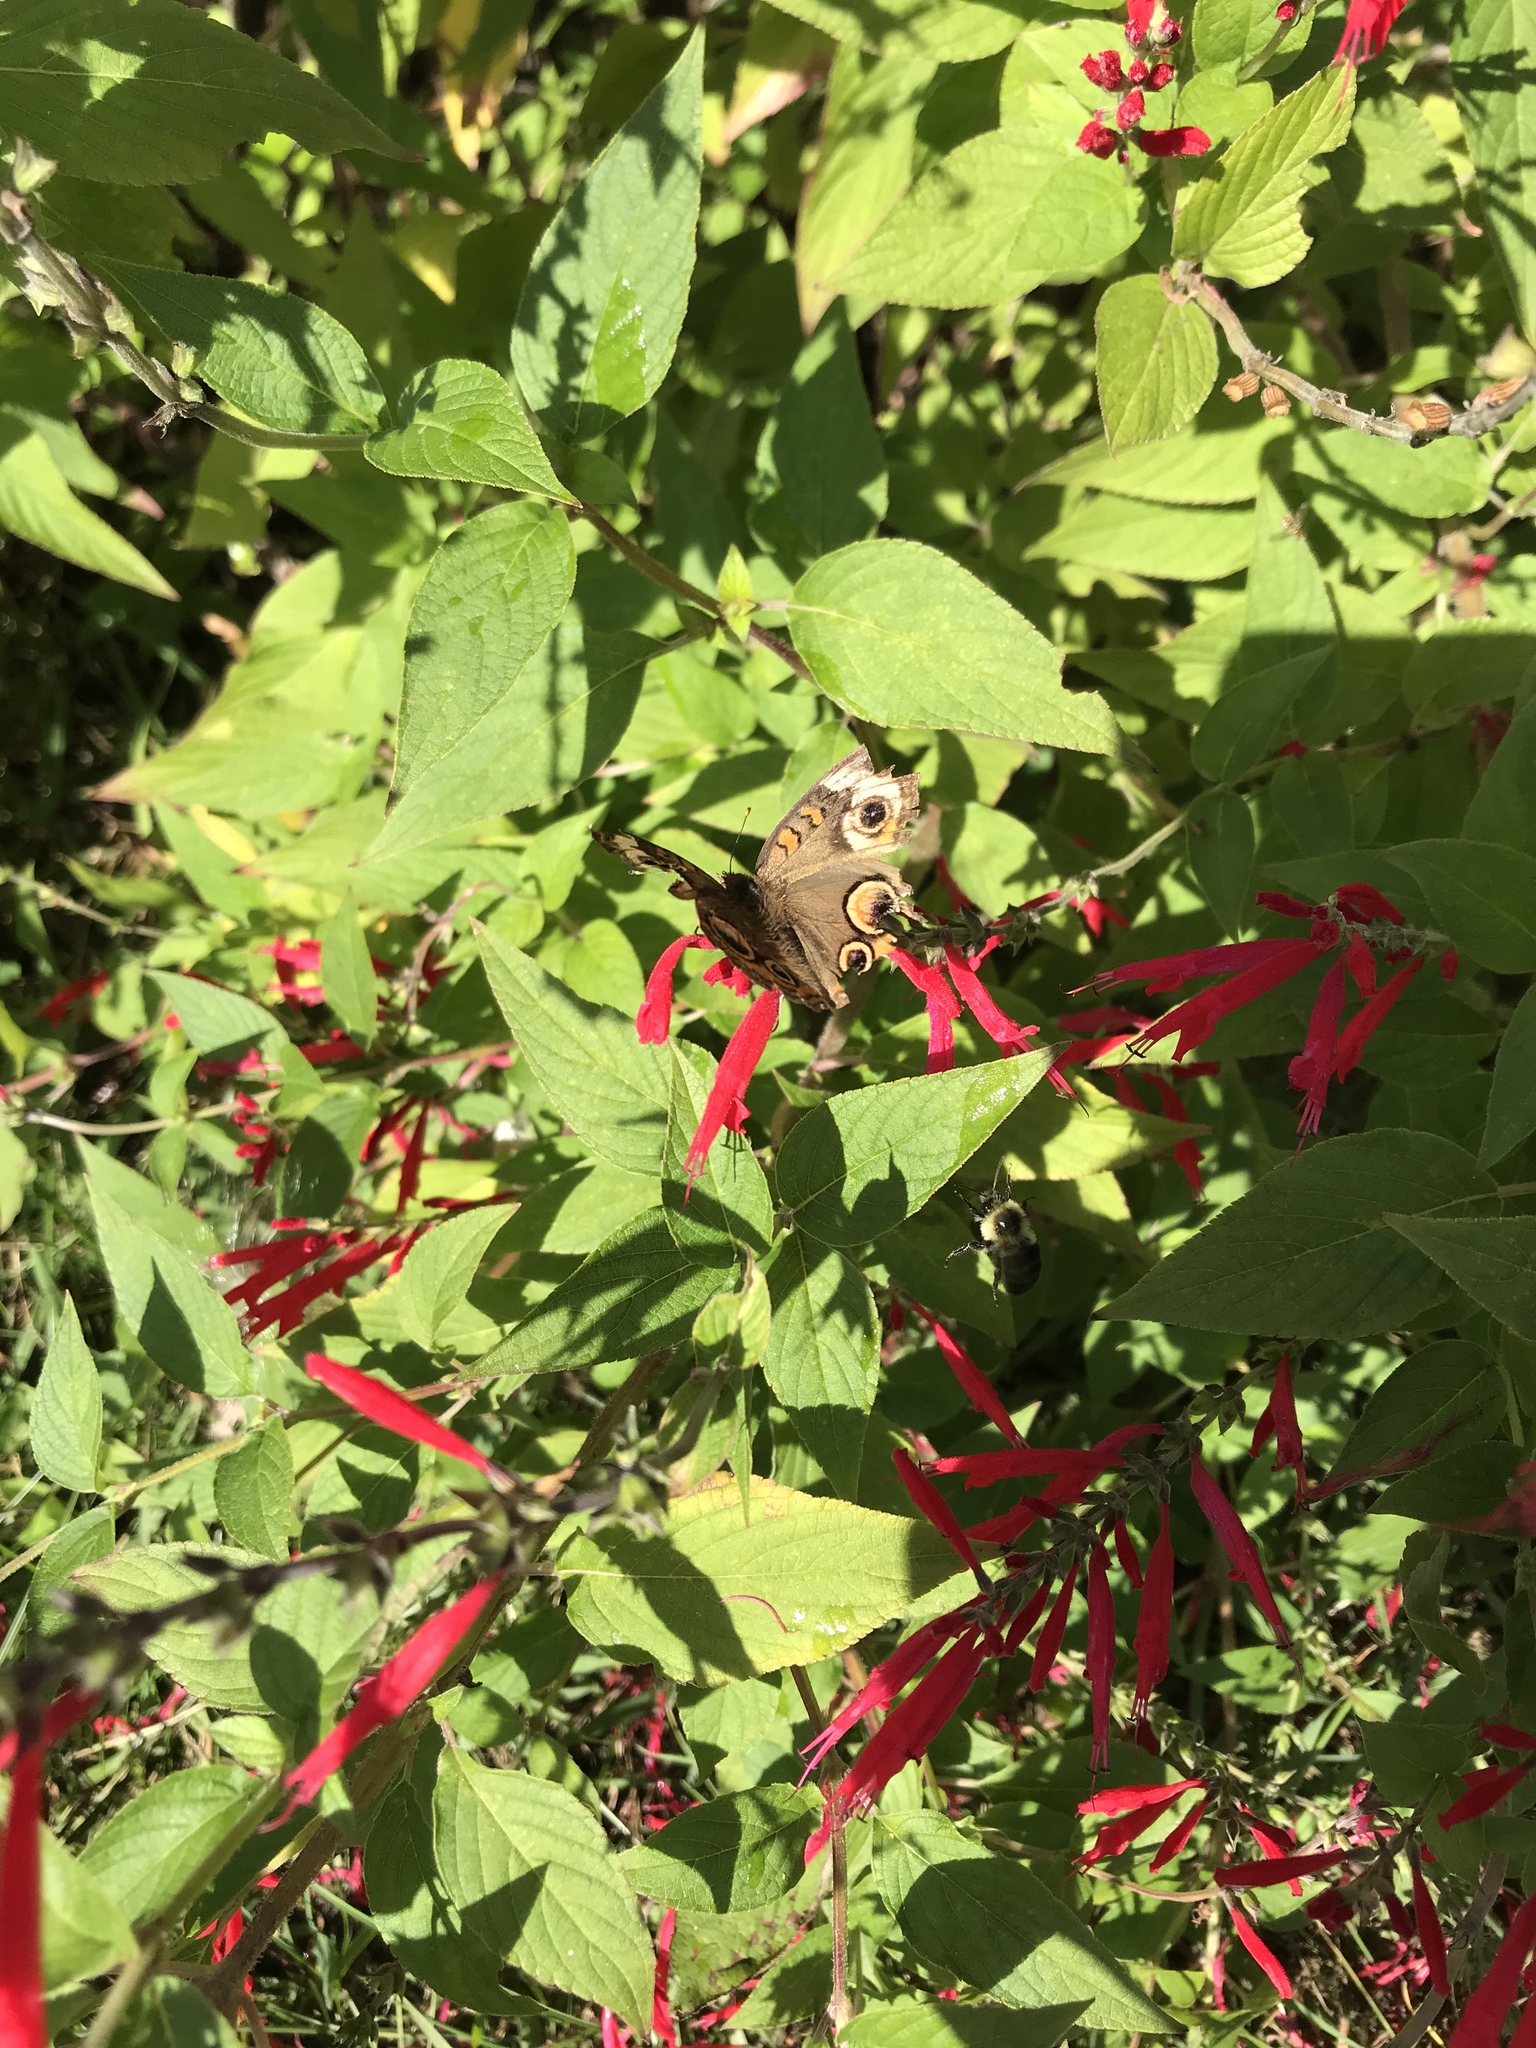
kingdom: Animalia
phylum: Arthropoda
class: Insecta
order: Lepidoptera
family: Nymphalidae
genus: Junonia
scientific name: Junonia coenia
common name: Common buckeye
